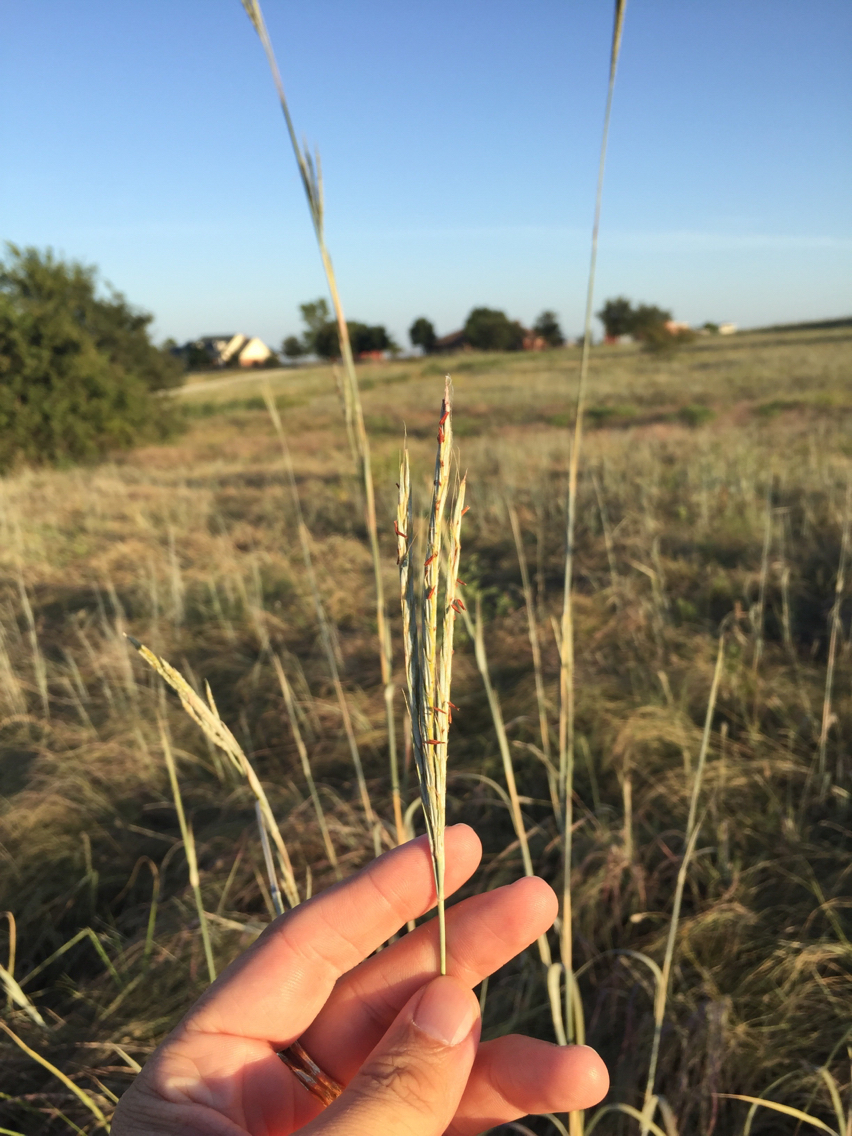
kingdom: Plantae
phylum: Tracheophyta
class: Liliopsida
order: Poales
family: Poaceae
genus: Andropogon
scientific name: Andropogon gerardi
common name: Big bluestem
